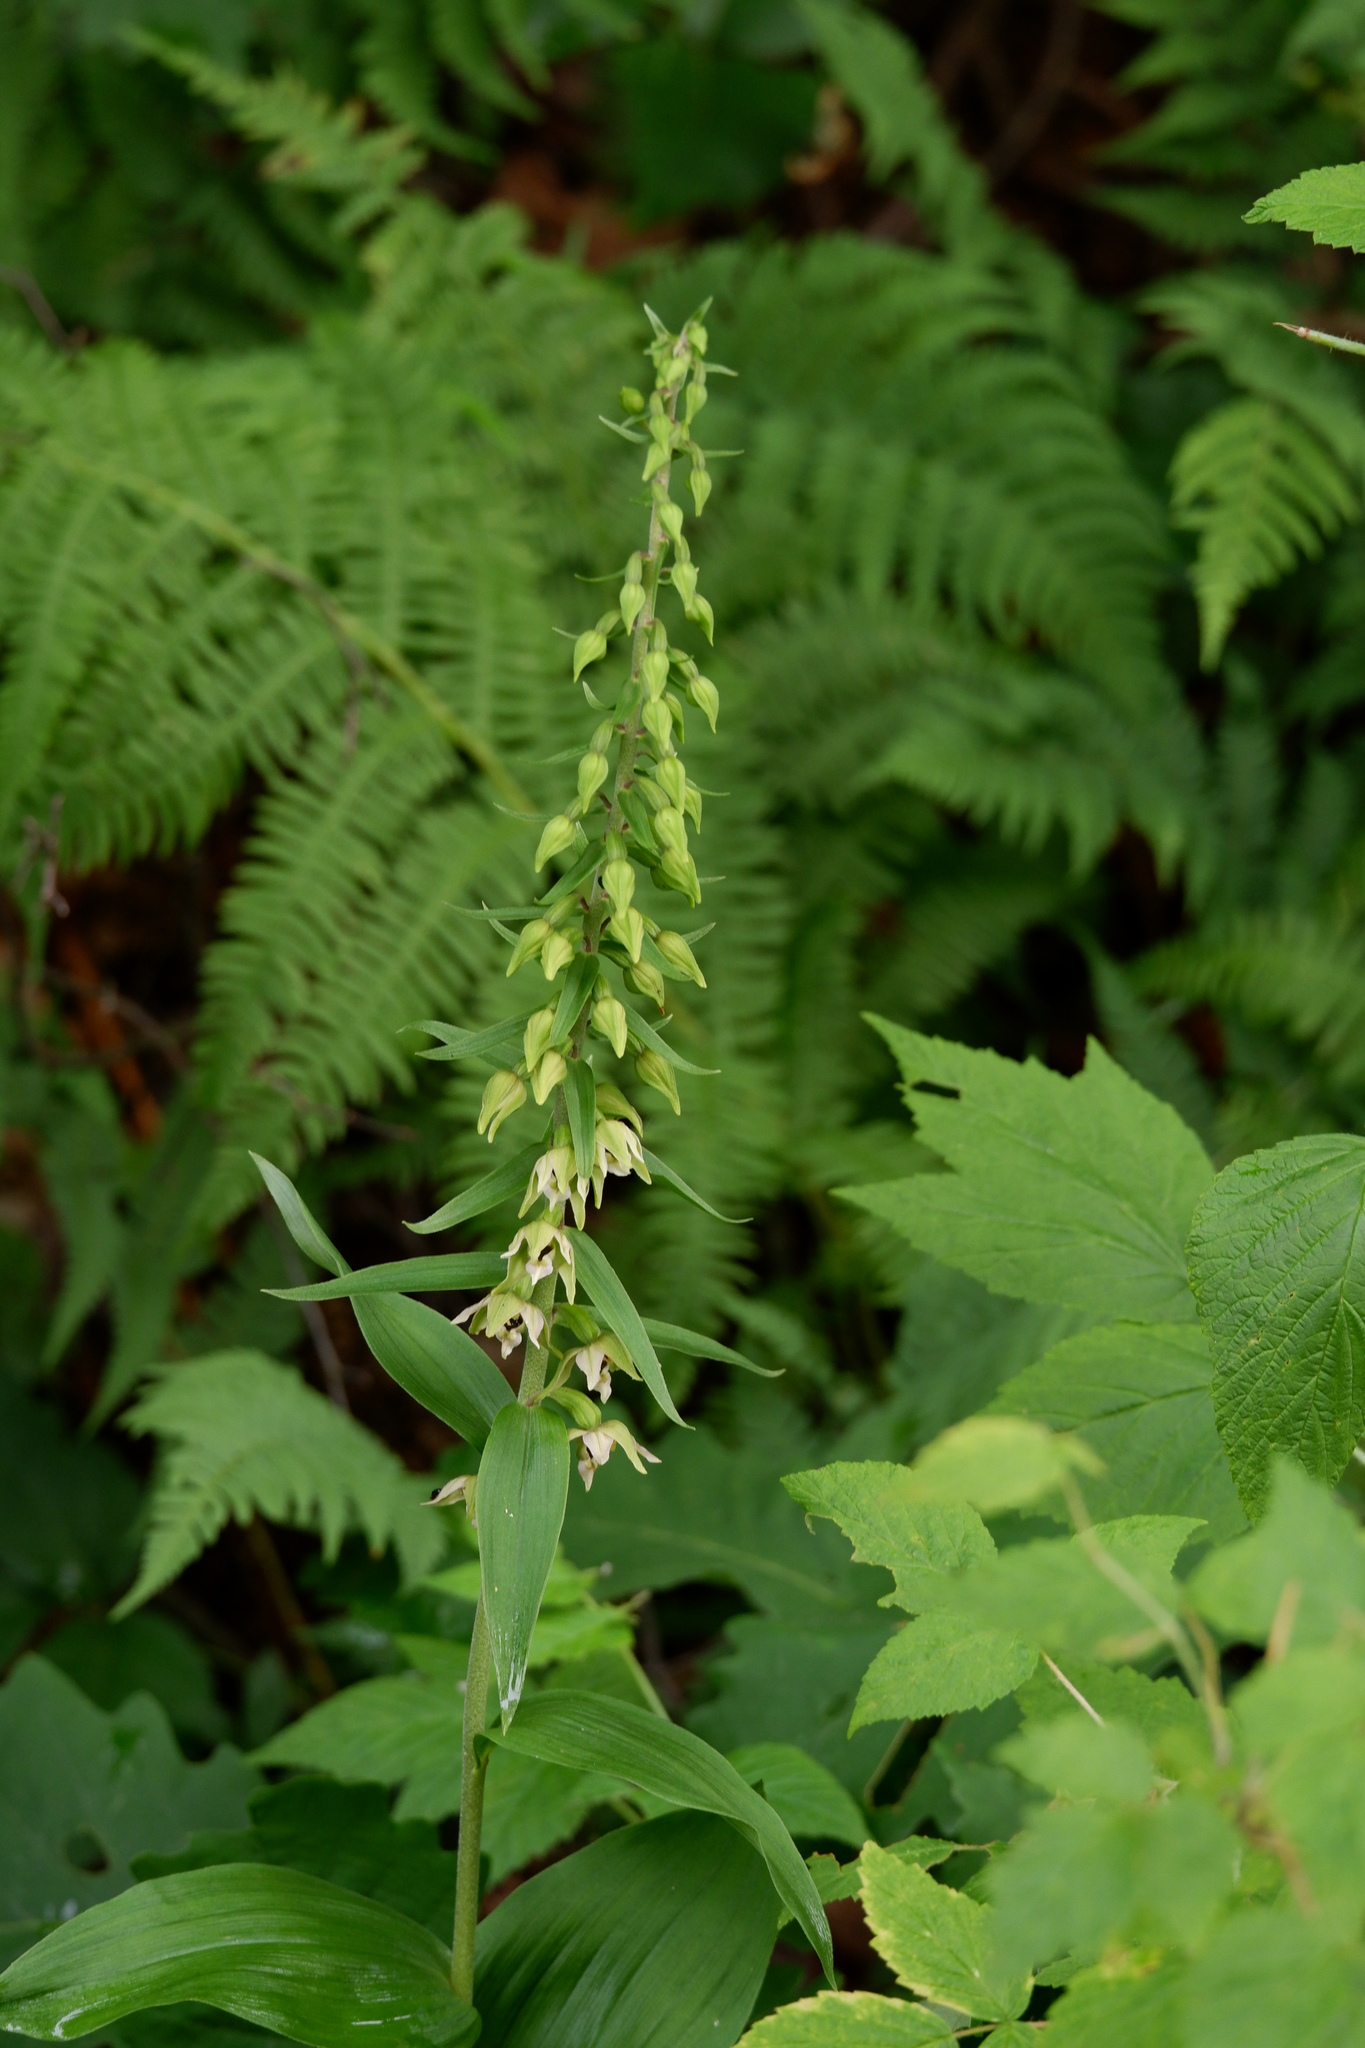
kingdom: Plantae
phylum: Tracheophyta
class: Liliopsida
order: Asparagales
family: Orchidaceae
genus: Epipactis
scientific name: Epipactis helleborine
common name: Broad-leaved helleborine
